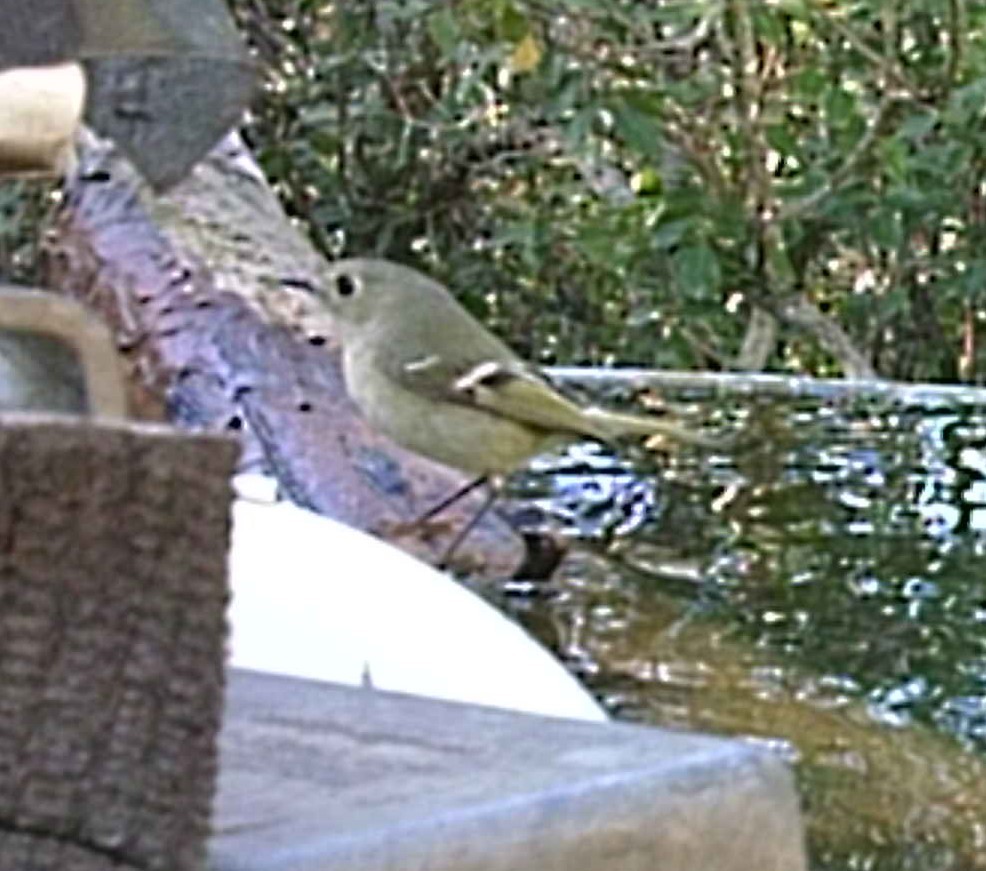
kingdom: Animalia
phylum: Chordata
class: Aves
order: Passeriformes
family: Regulidae
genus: Regulus
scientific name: Regulus calendula
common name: Ruby-crowned kinglet
